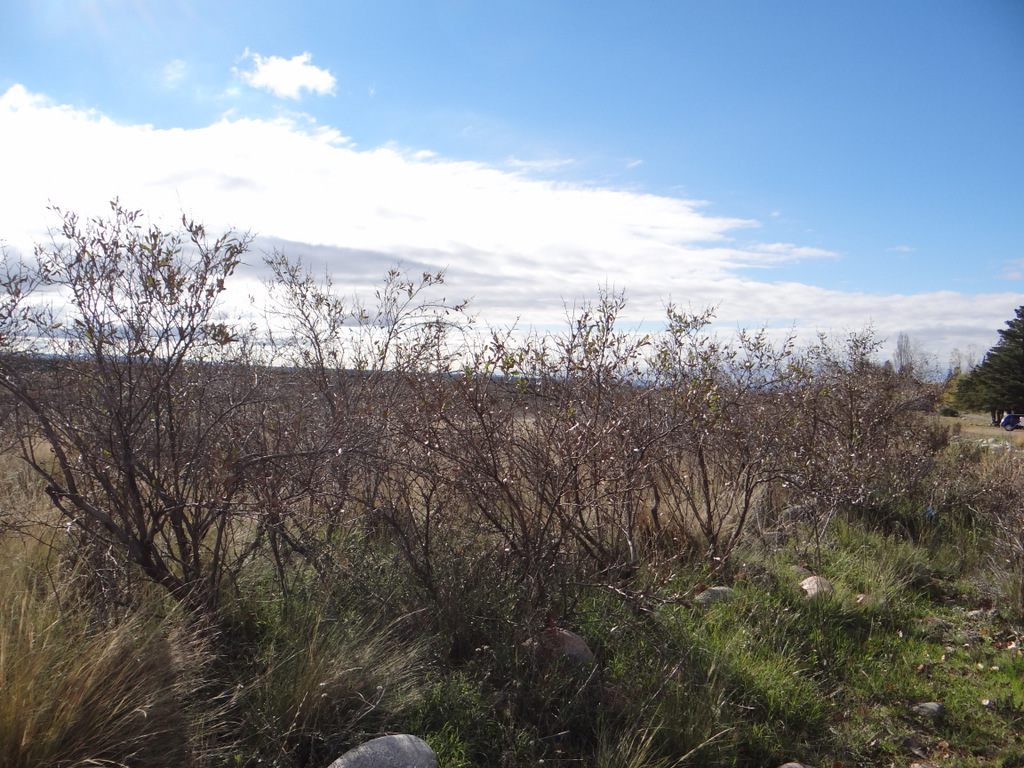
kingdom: Plantae
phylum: Tracheophyta
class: Magnoliopsida
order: Asterales
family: Asteraceae
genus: Proustia
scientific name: Proustia cuneifolia
